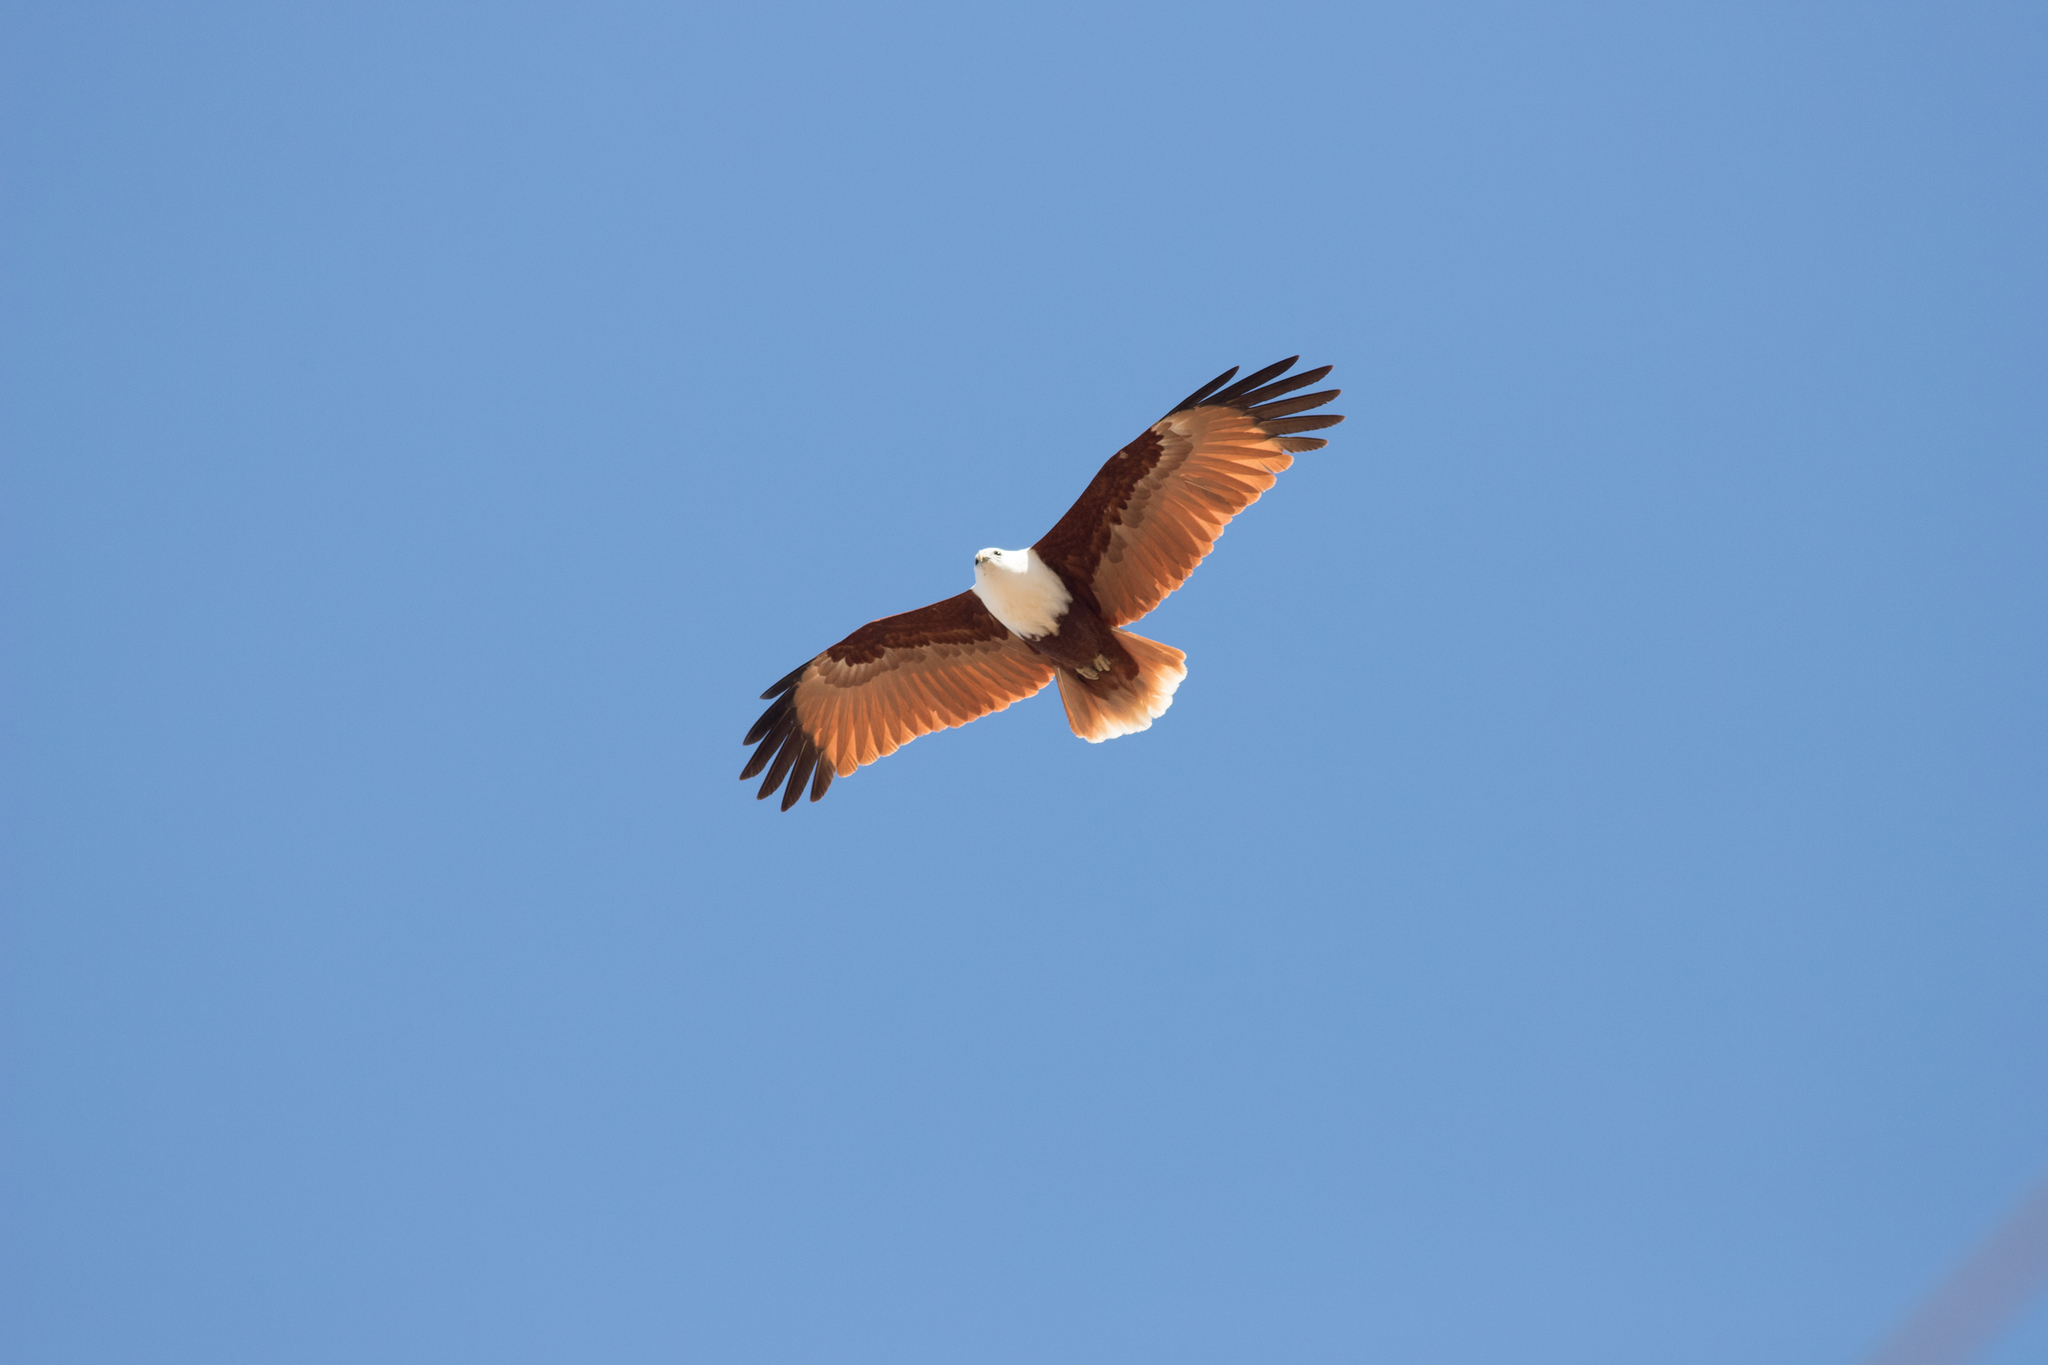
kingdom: Animalia
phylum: Chordata
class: Aves
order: Accipitriformes
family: Accipitridae
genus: Haliastur
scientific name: Haliastur indus
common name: Brahminy kite
